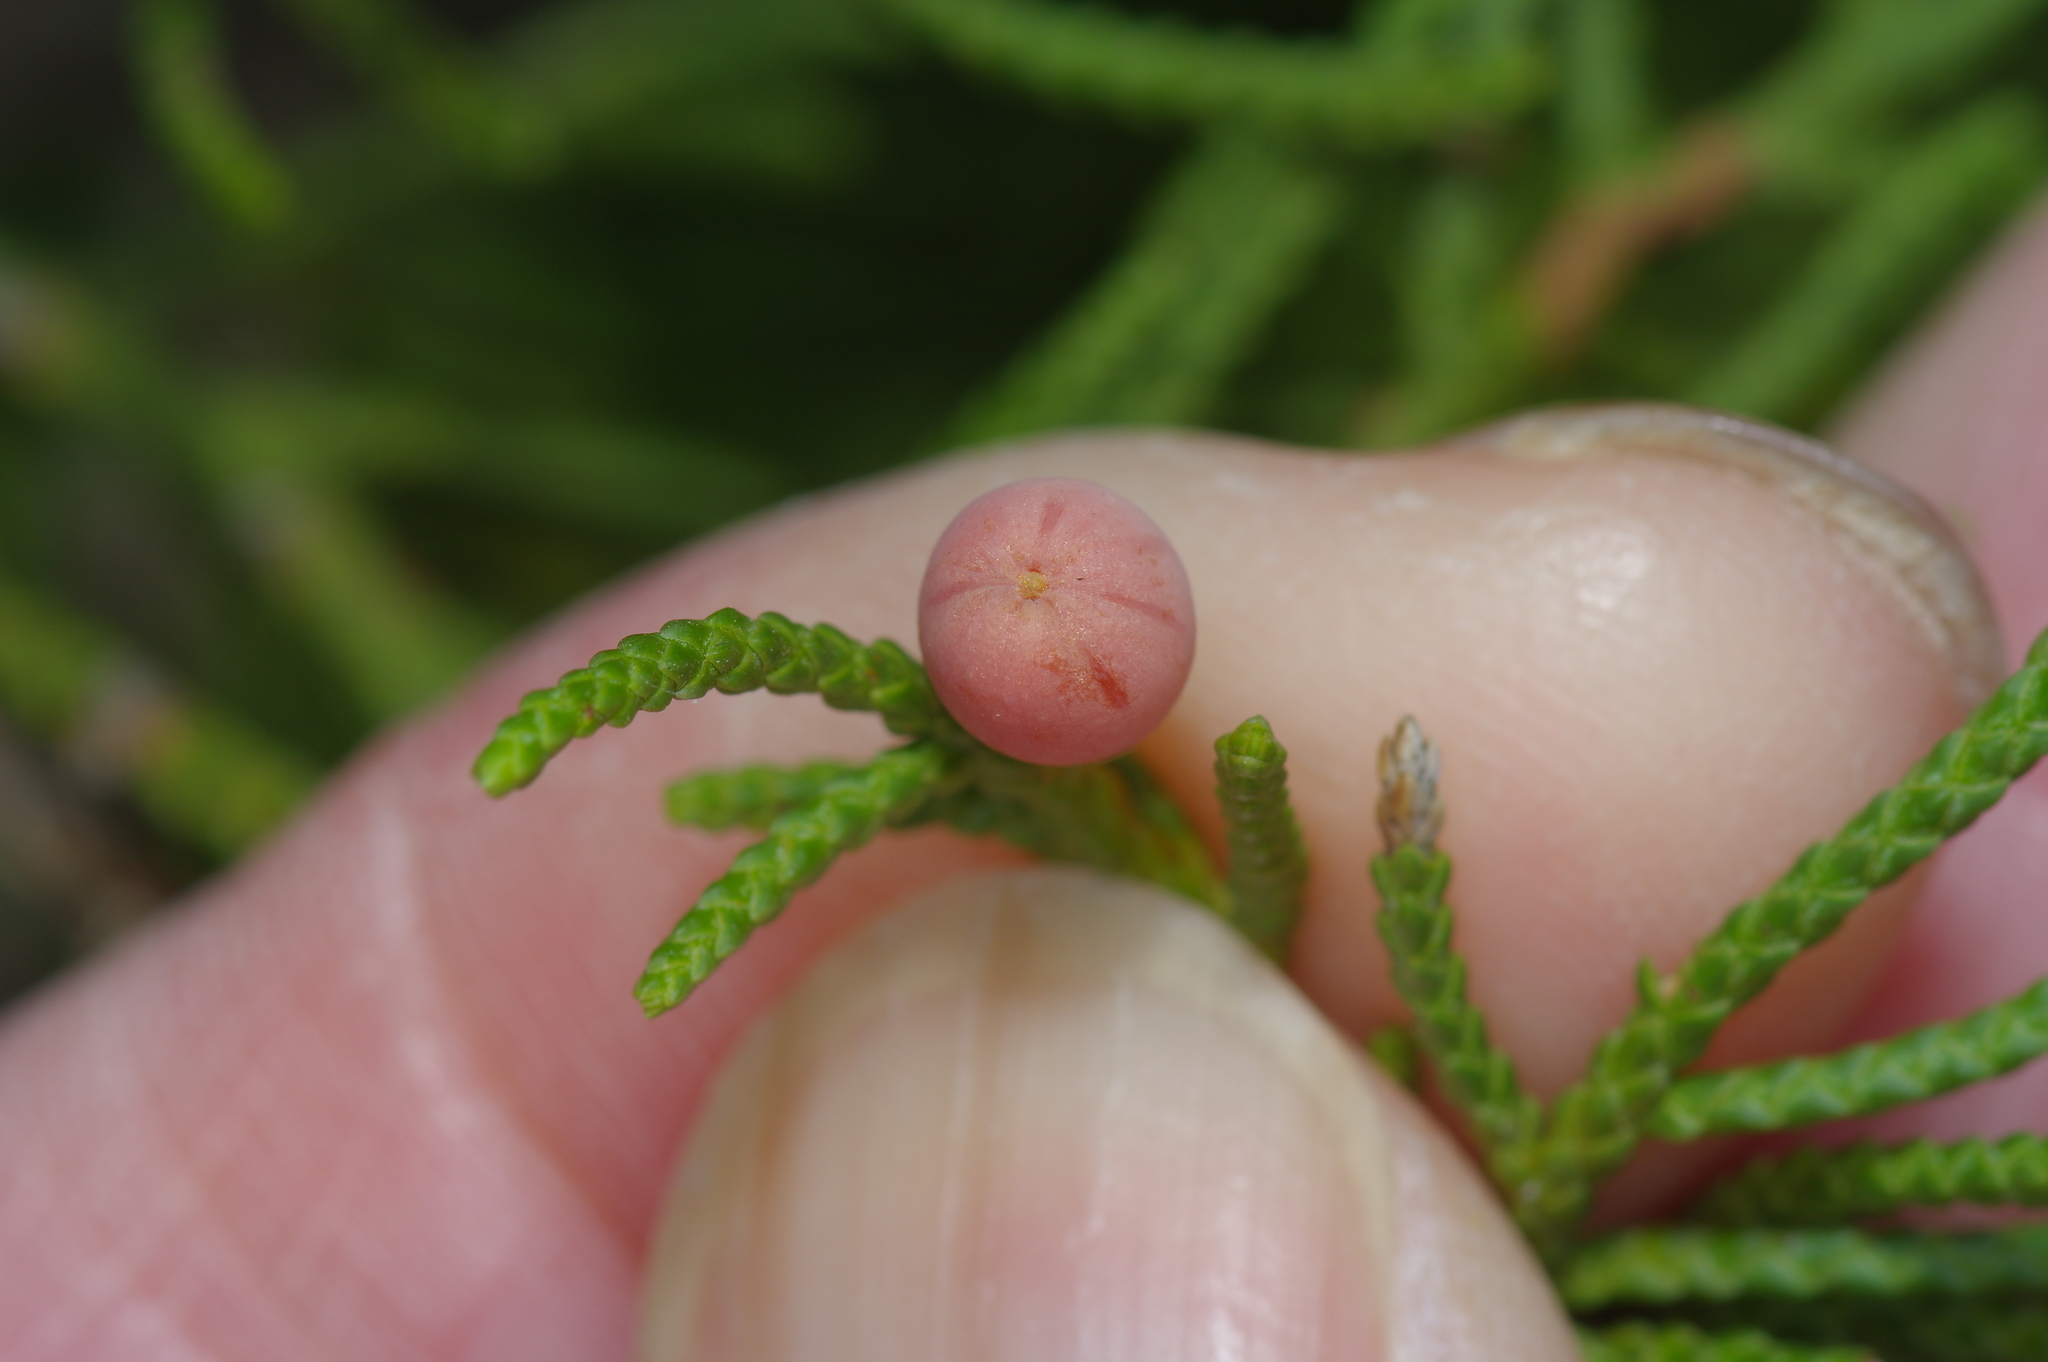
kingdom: Animalia
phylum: Arthropoda
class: Insecta
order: Diptera
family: Cecidomyiidae
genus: Walshomyia
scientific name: Walshomyia juniperina
